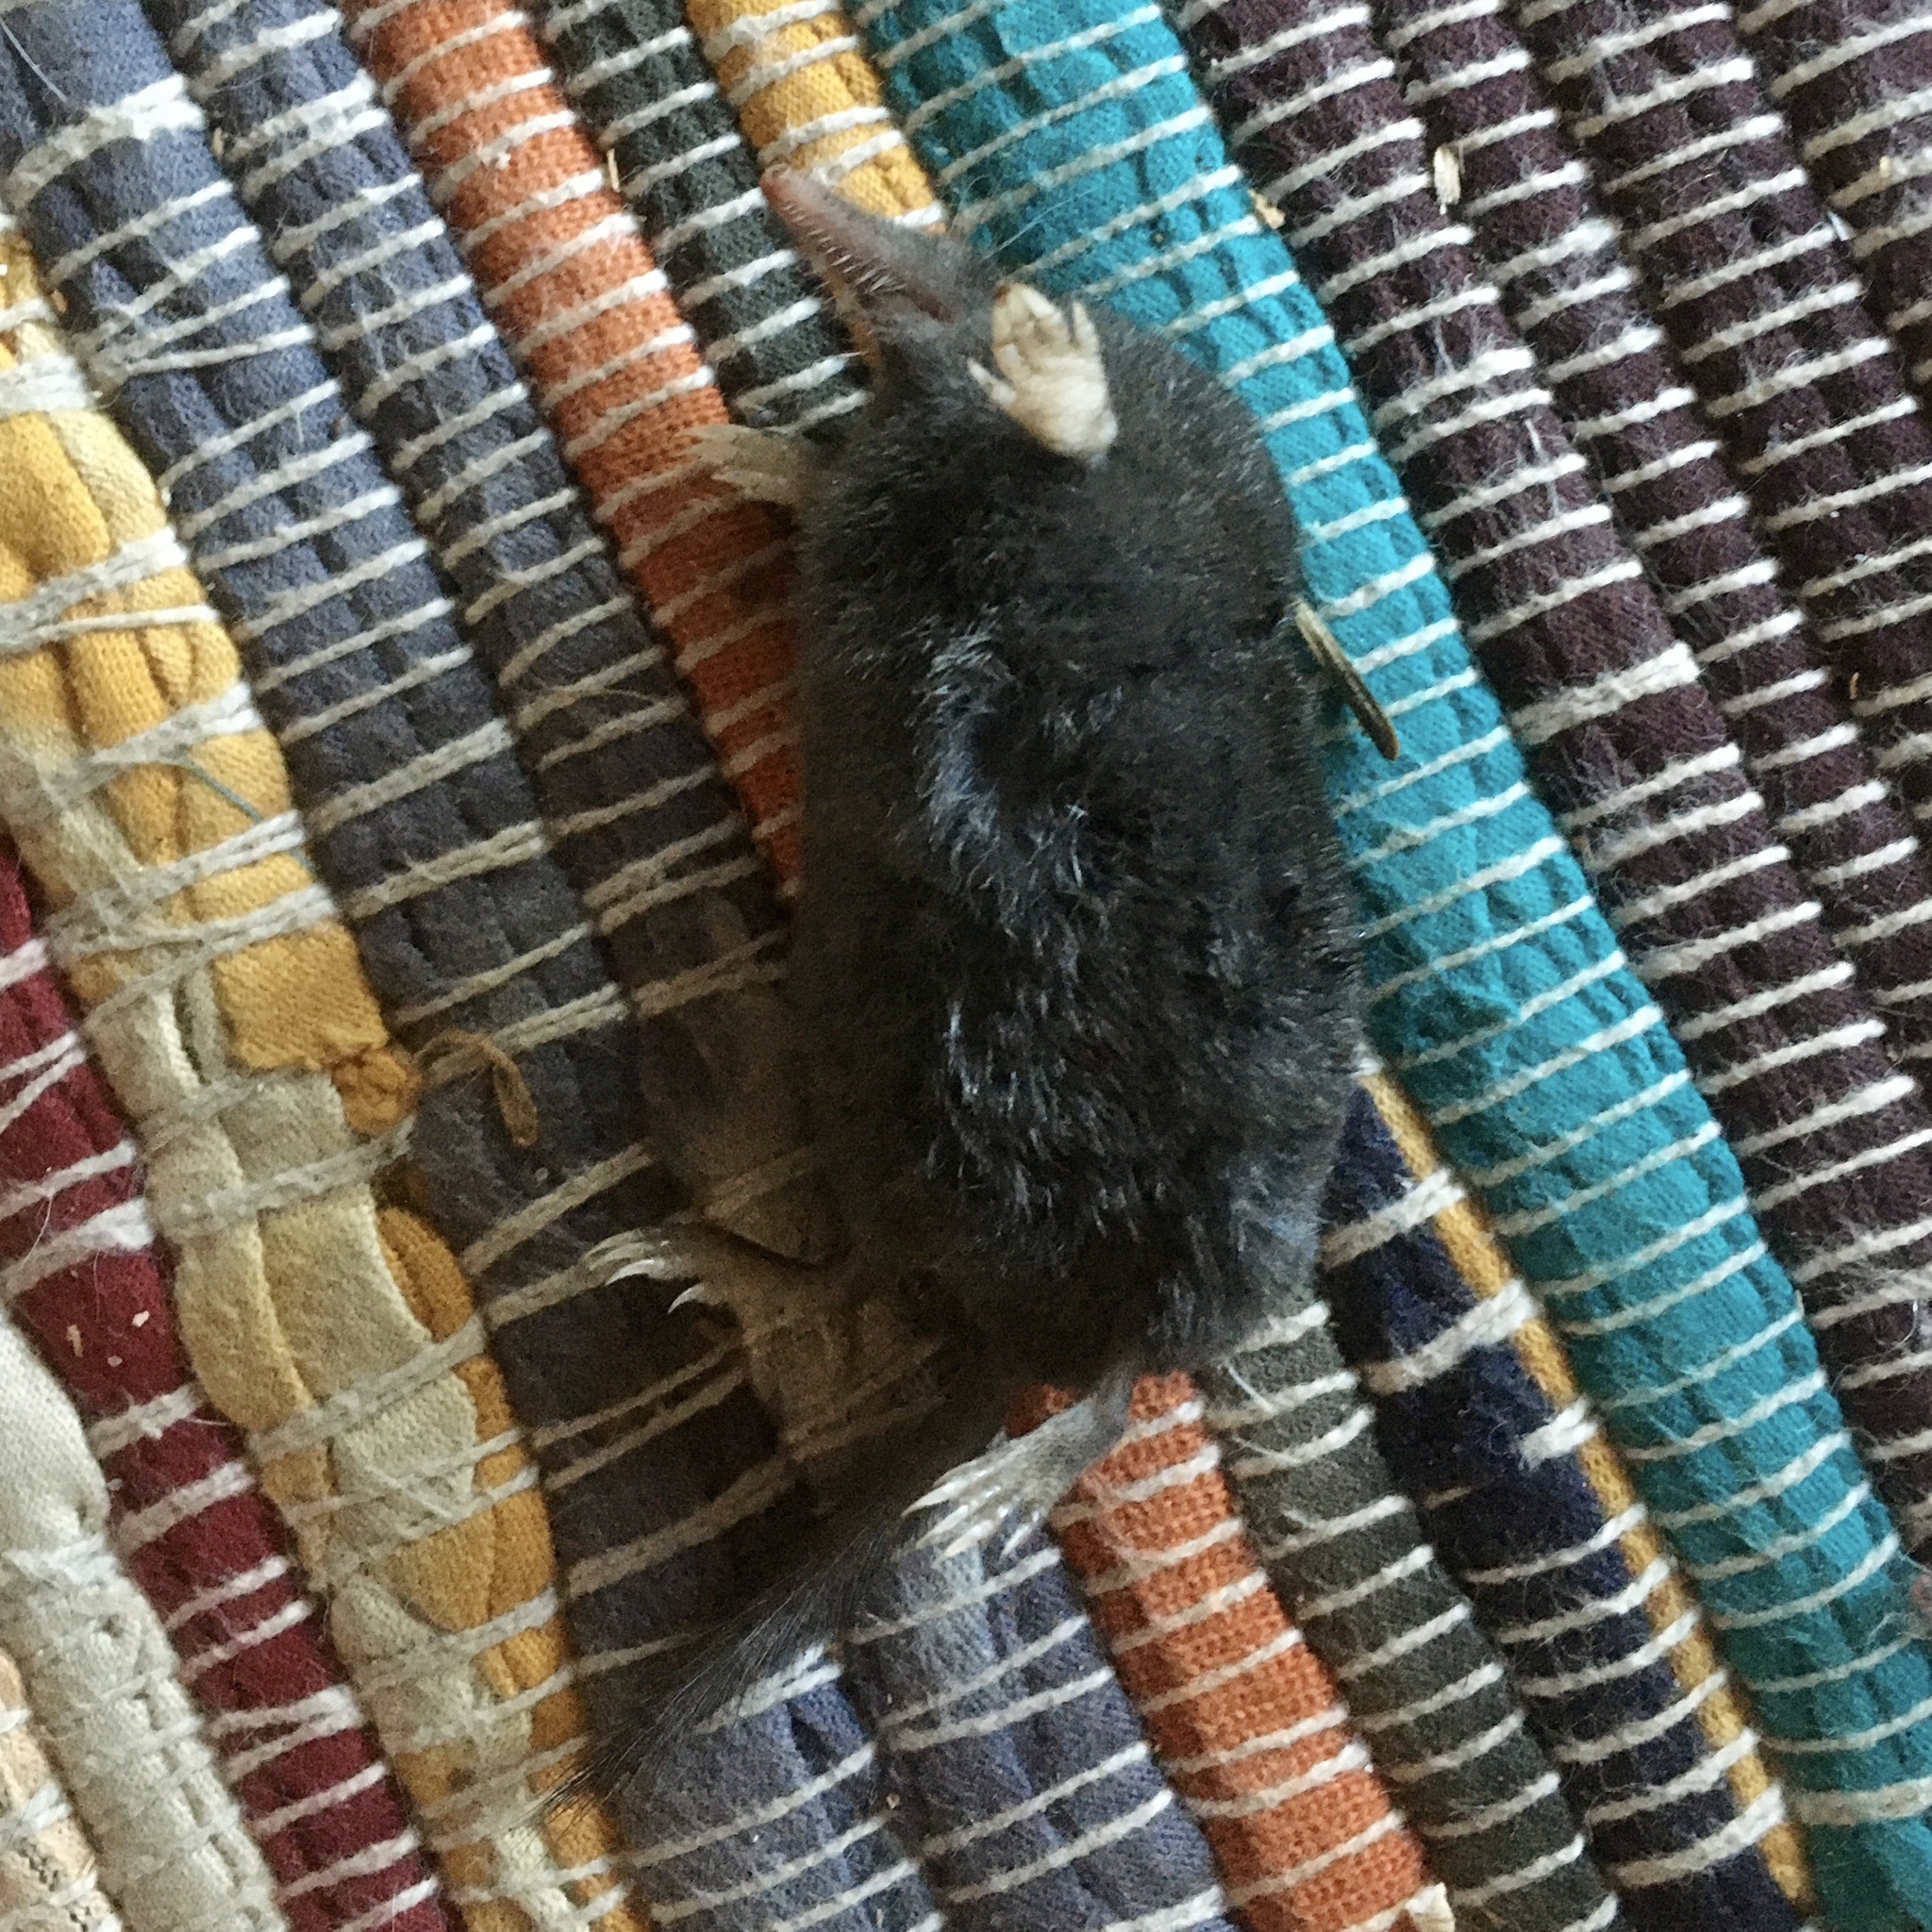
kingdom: Animalia
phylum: Chordata
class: Mammalia
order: Soricomorpha
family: Talpidae
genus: Neurotrichus
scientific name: Neurotrichus gibbsii
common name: American shrew mole
